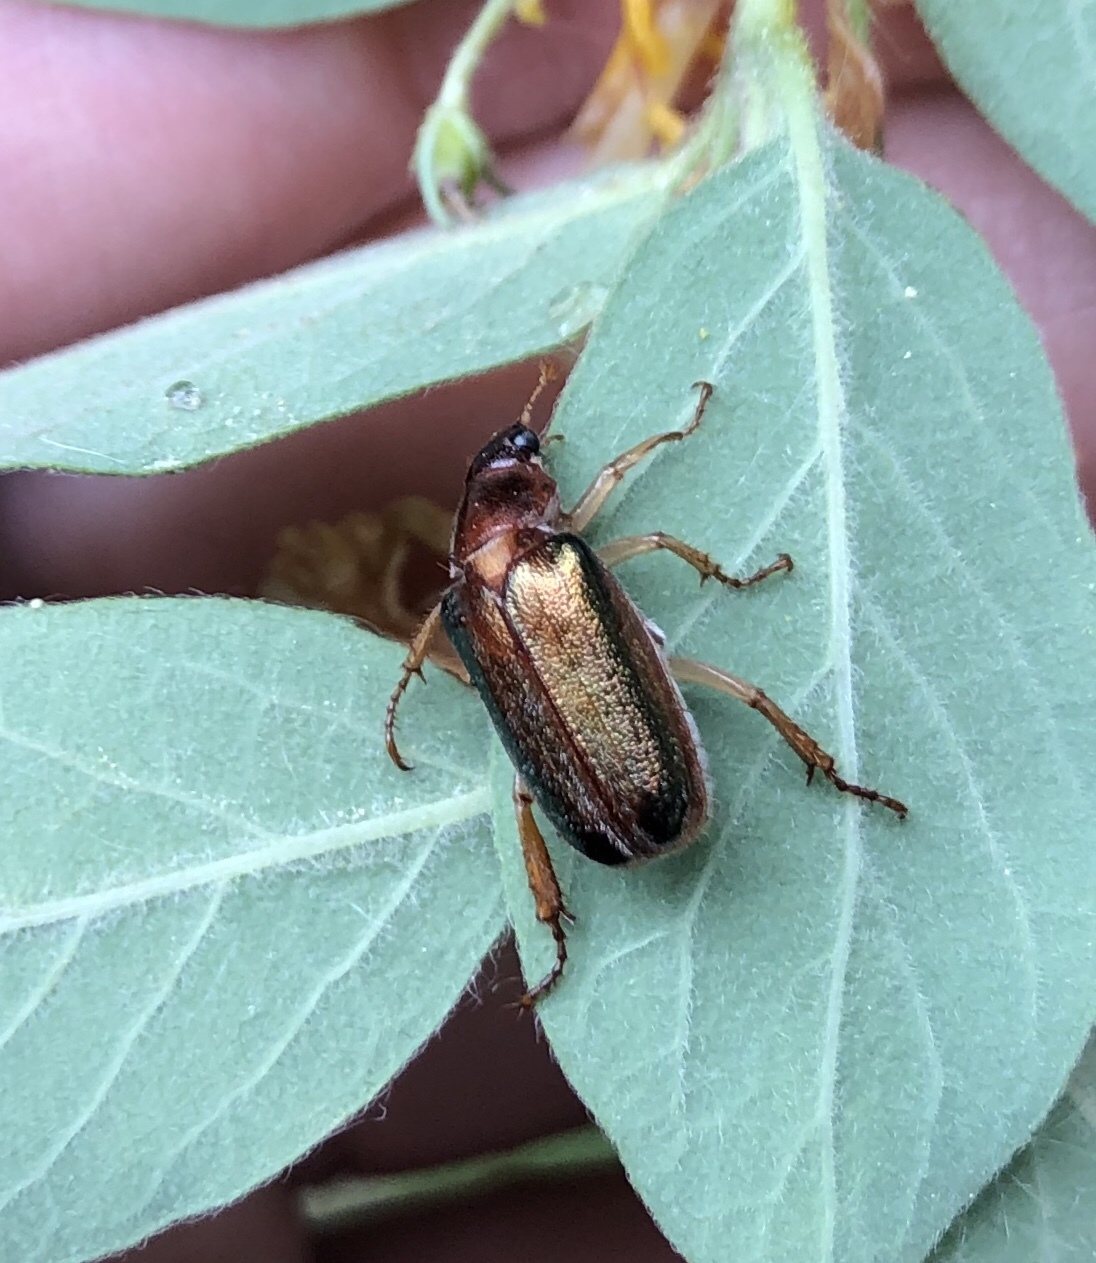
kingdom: Animalia
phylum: Arthropoda
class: Insecta
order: Coleoptera
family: Scarabaeidae
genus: Dichelonyx
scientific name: Dichelonyx subvittata
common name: Bronzed chafer
